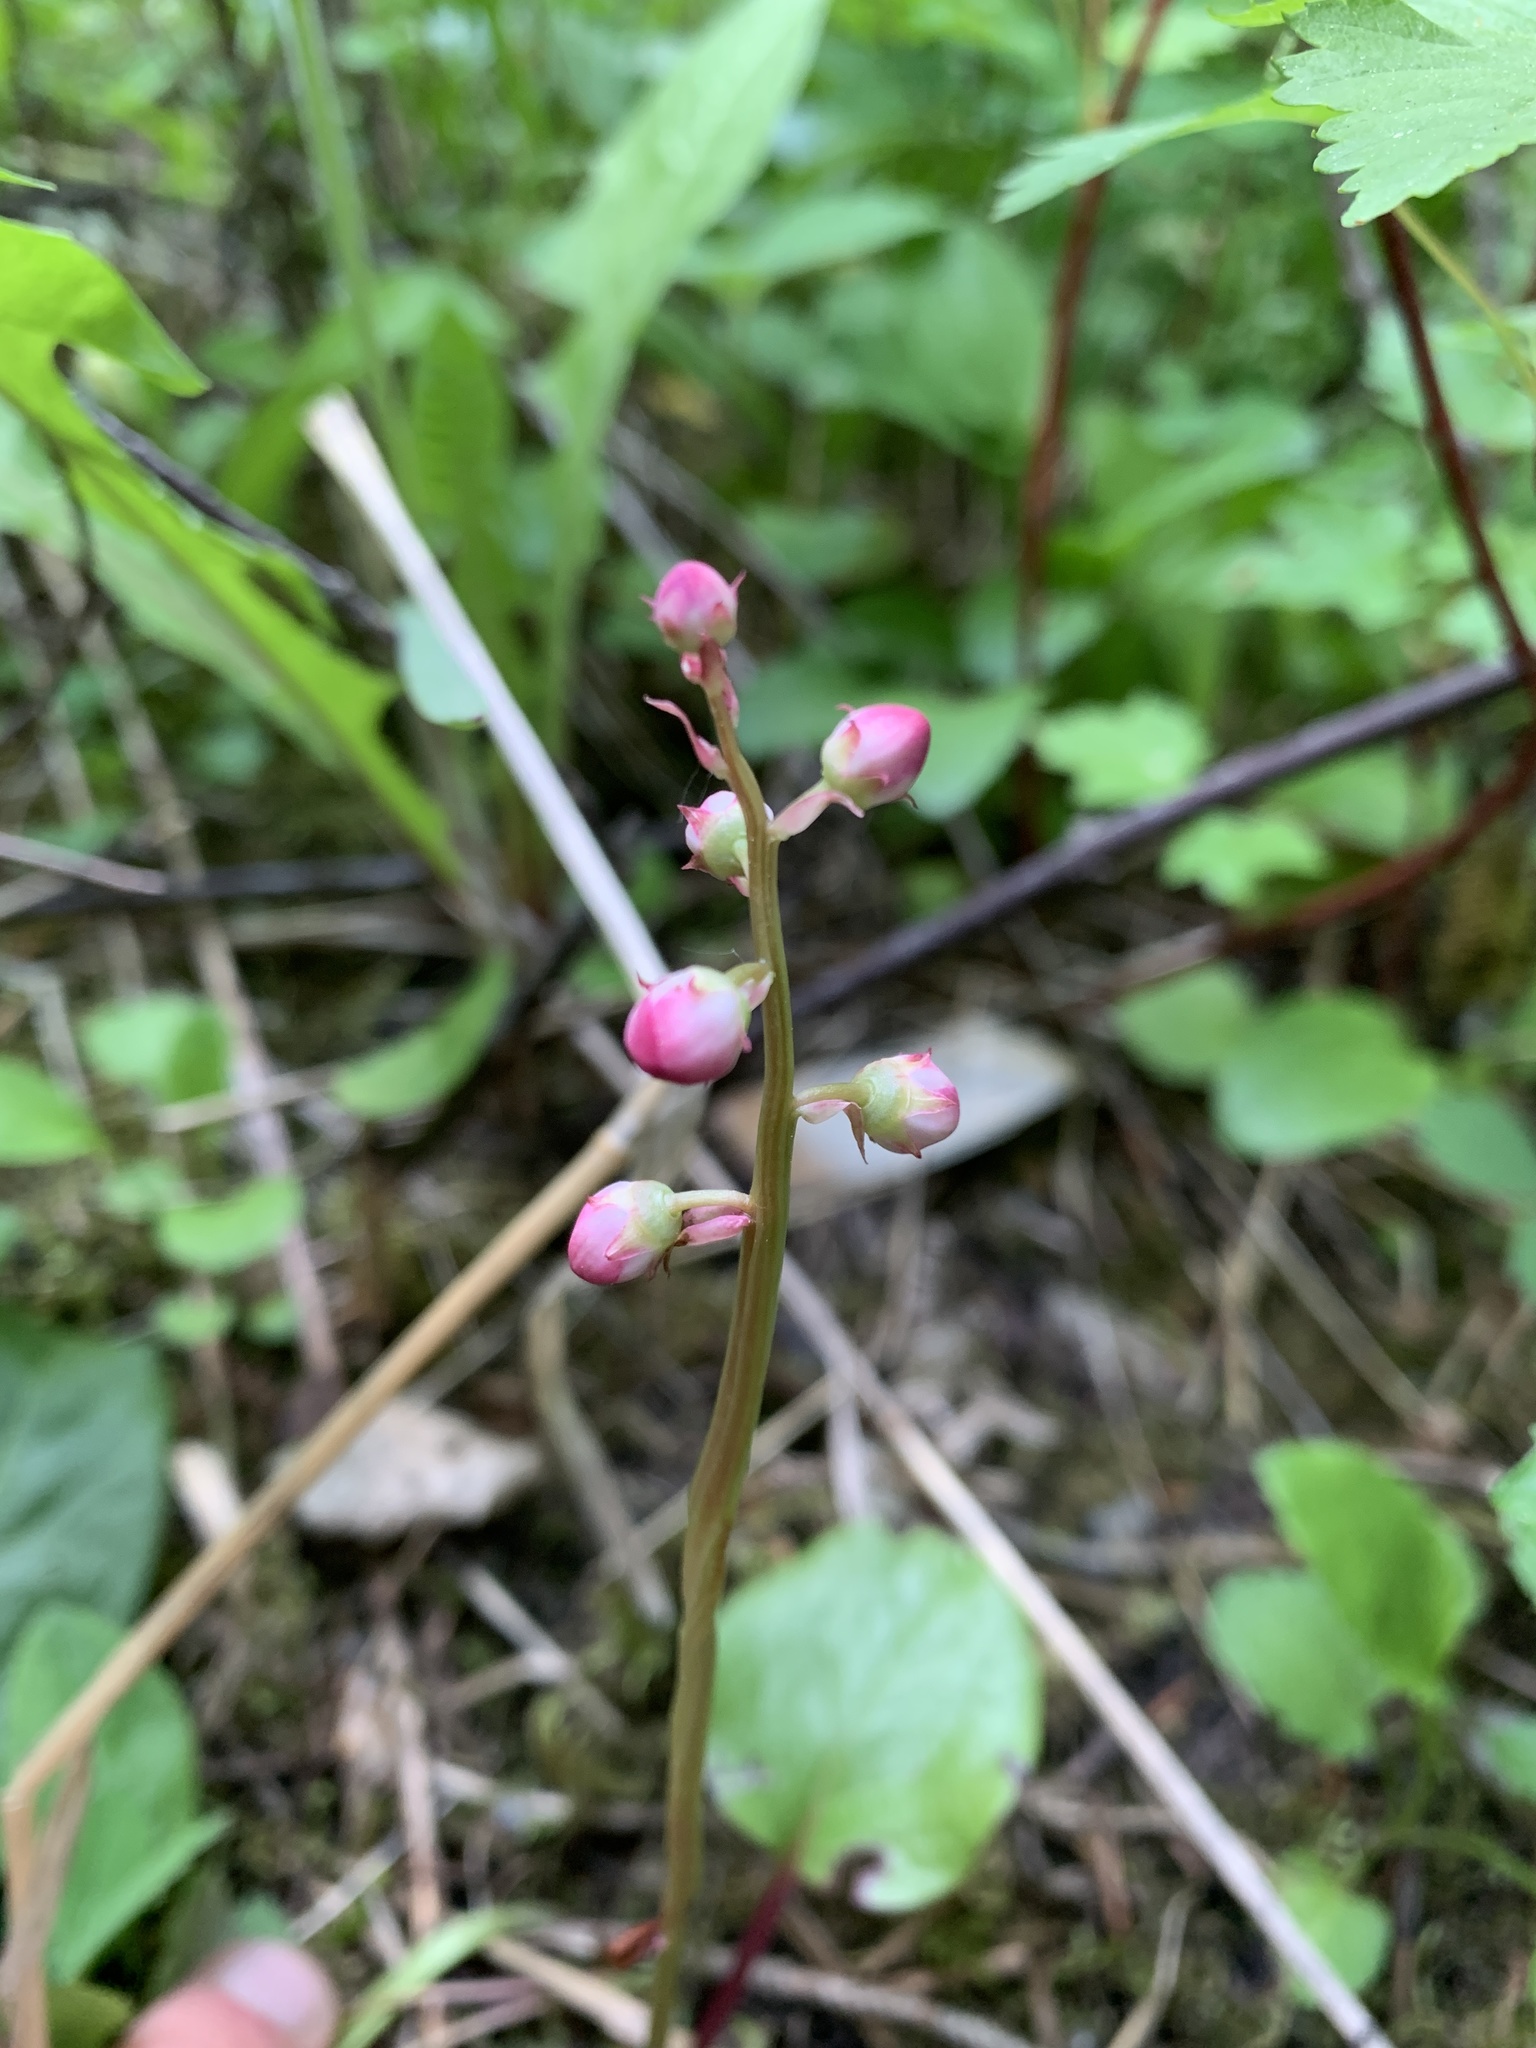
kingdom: Plantae
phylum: Tracheophyta
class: Magnoliopsida
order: Ericales
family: Ericaceae
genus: Pyrola
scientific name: Pyrola asarifolia
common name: Bog wintergreen
